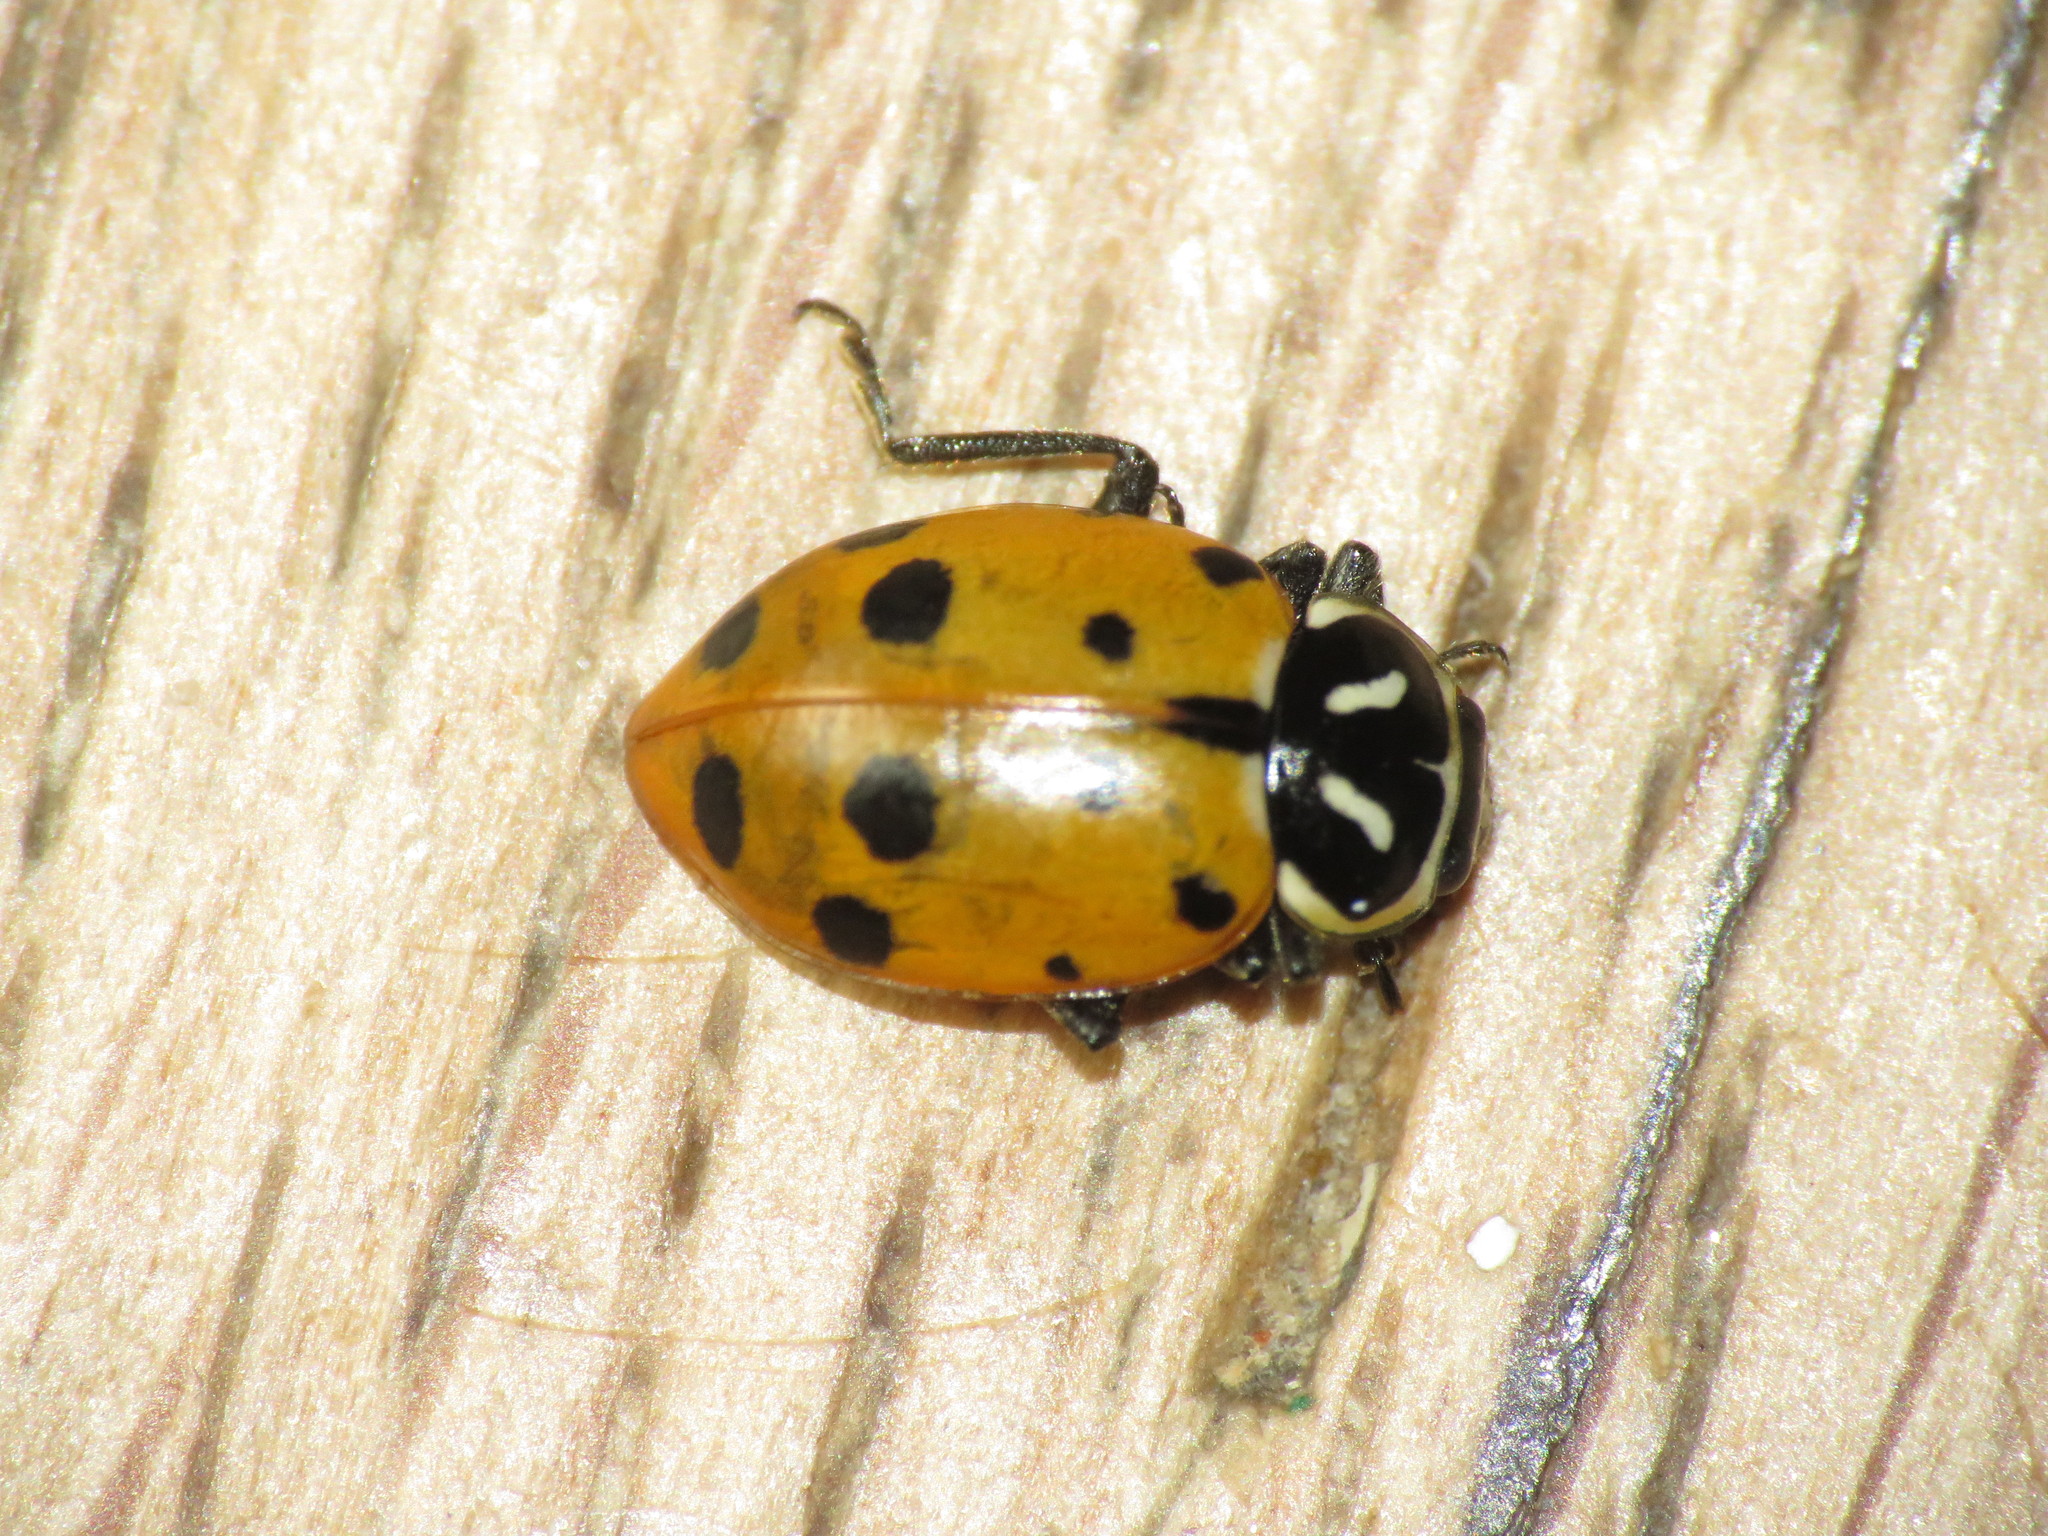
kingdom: Animalia
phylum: Arthropoda
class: Insecta
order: Coleoptera
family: Coccinellidae
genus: Hippodamia
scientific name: Hippodamia convergens
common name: Convergent lady beetle
